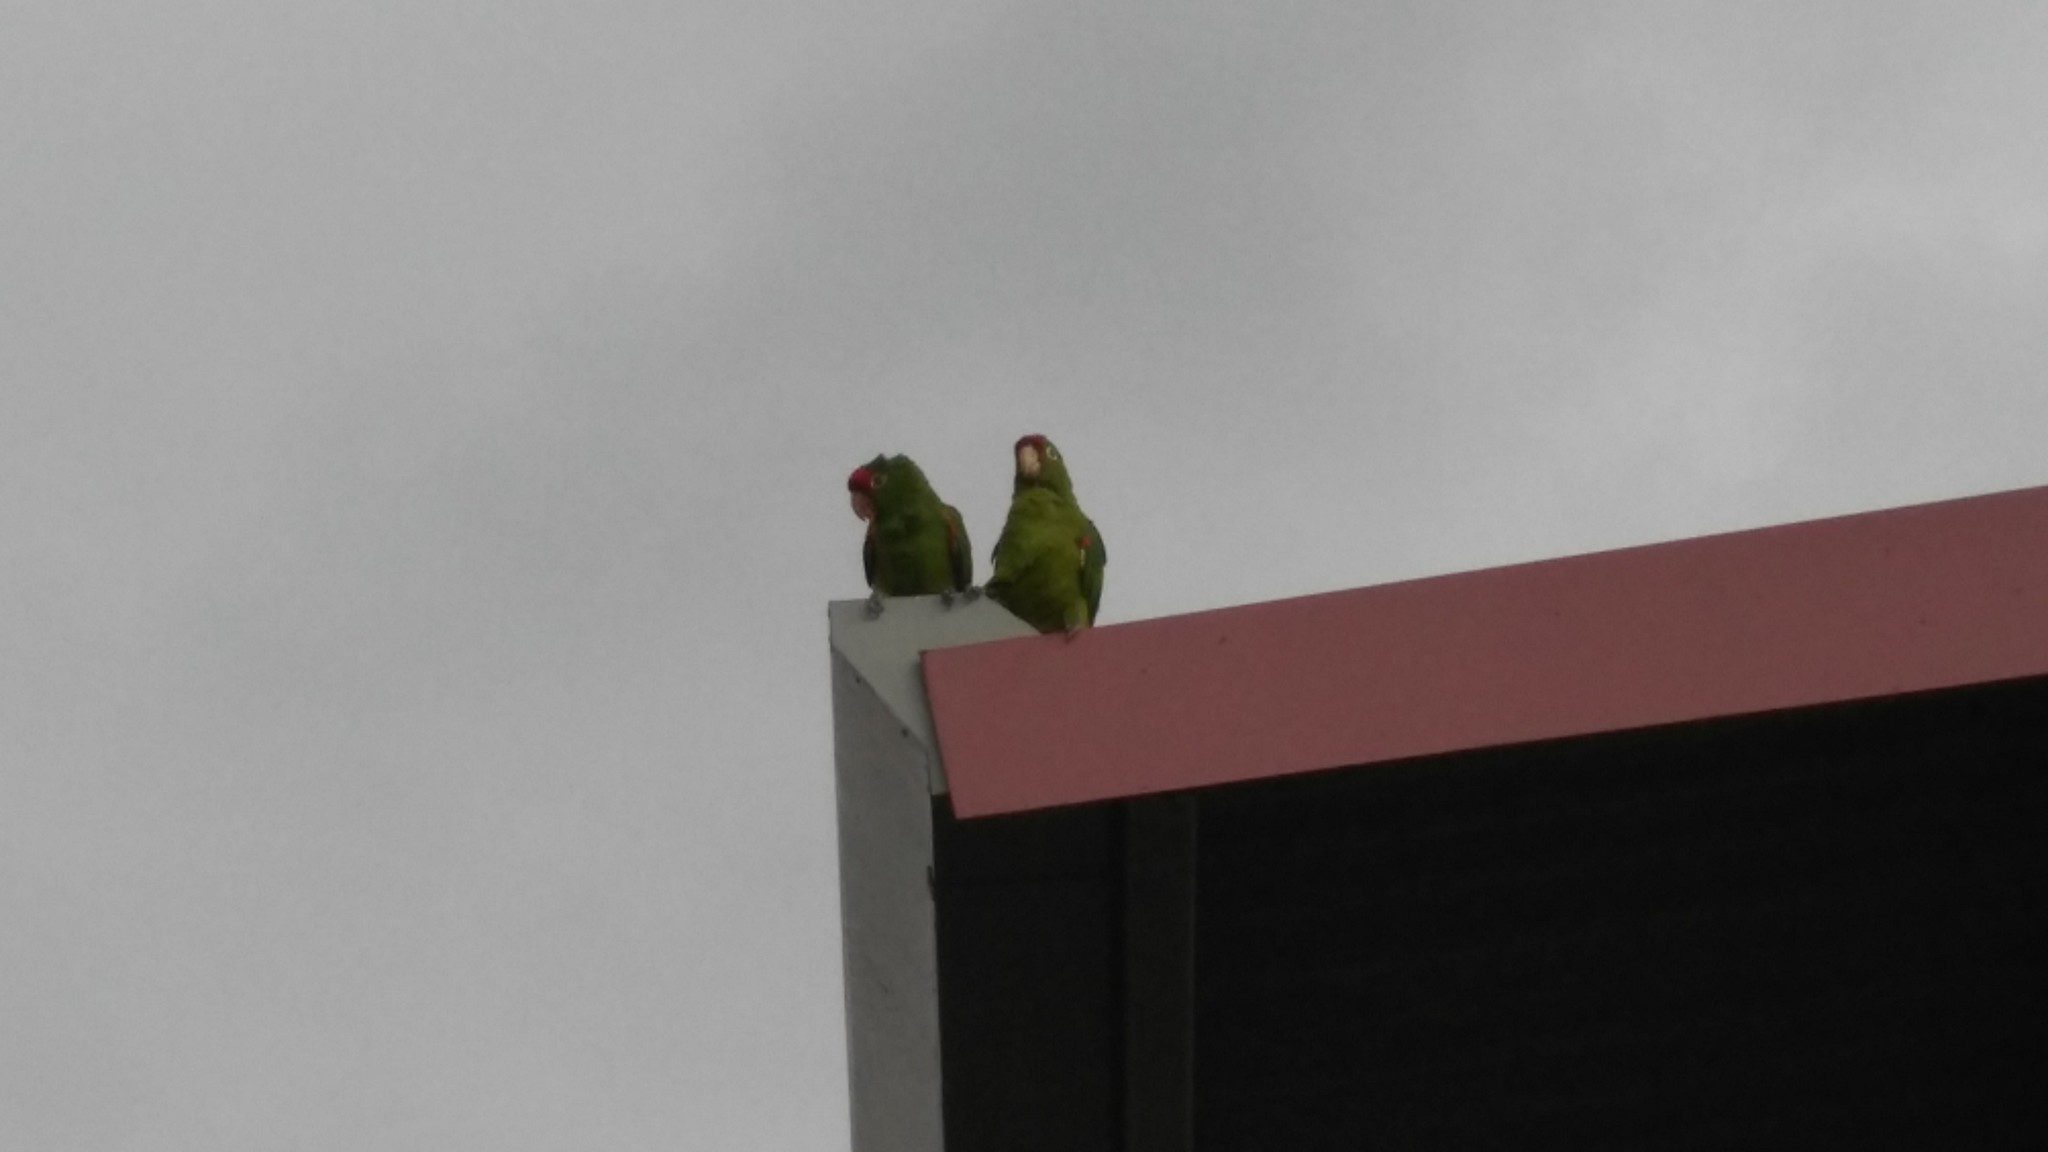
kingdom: Animalia
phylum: Chordata
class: Aves
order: Psittaciformes
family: Psittacidae
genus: Aratinga
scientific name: Aratinga finschi
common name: Crimson-fronted parakeet
